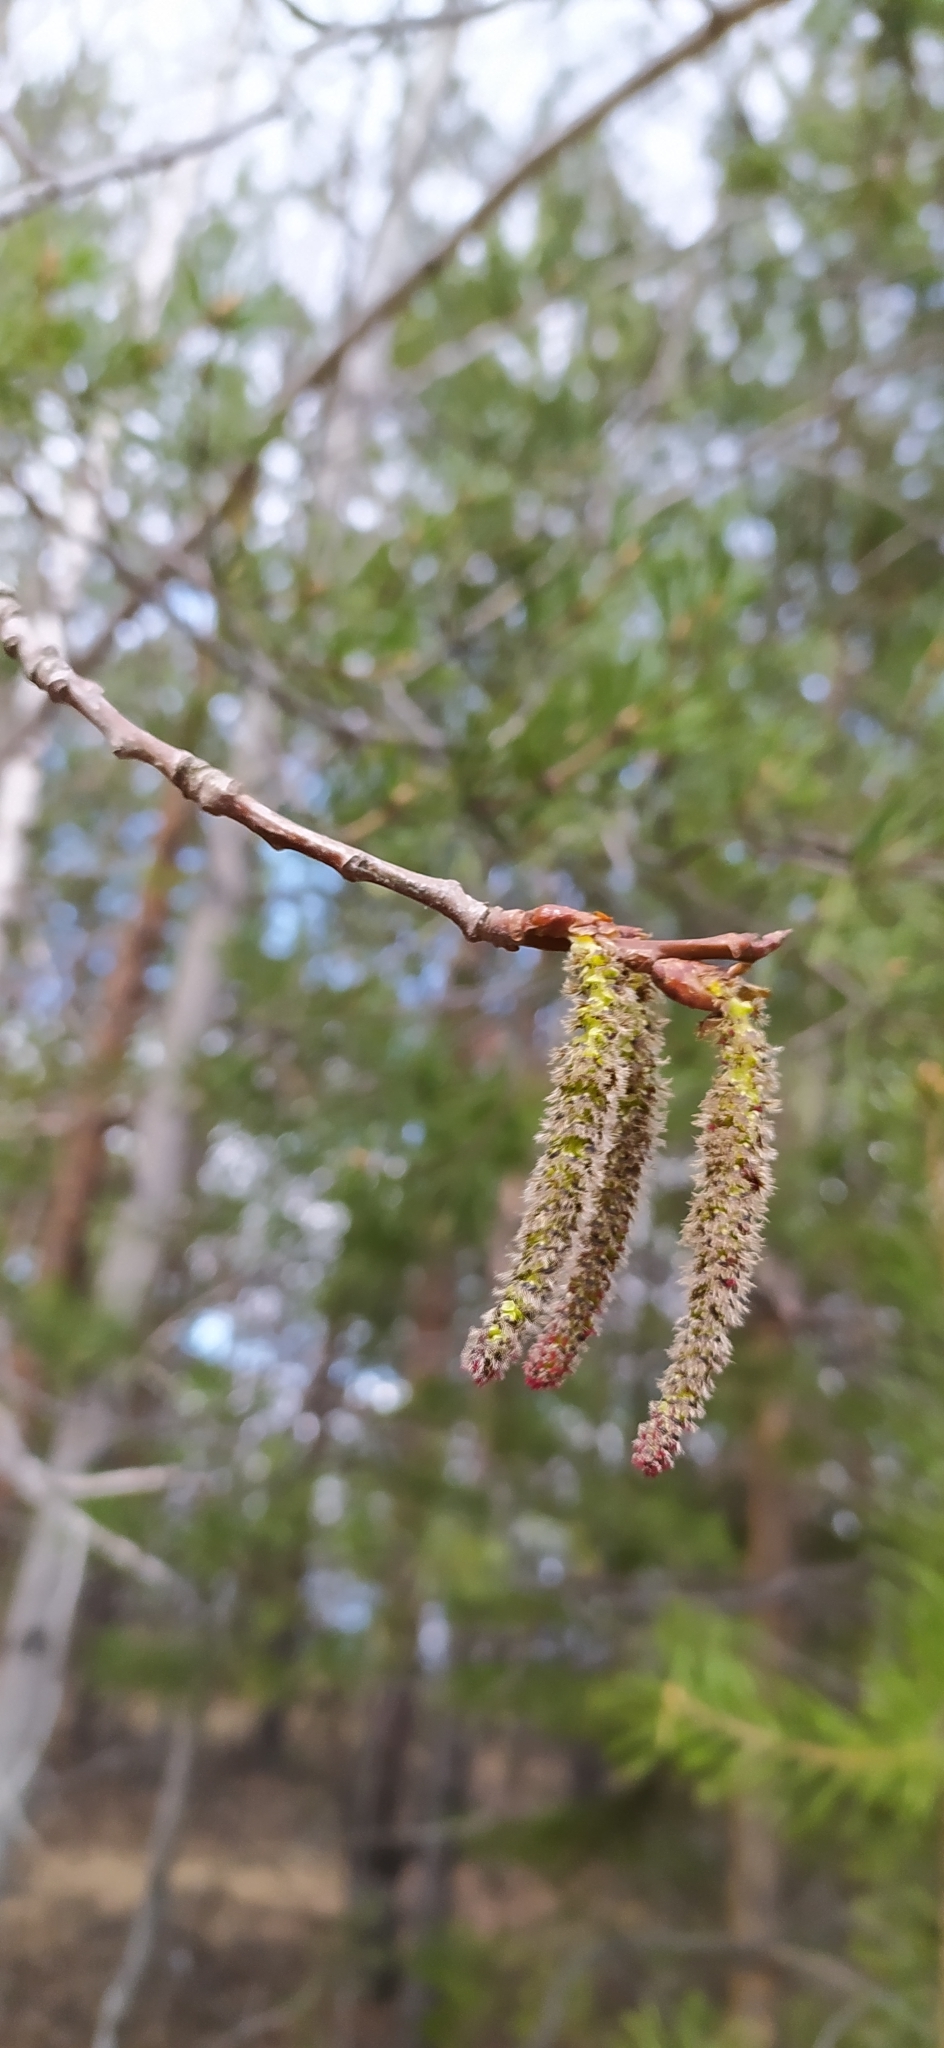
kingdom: Plantae
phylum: Tracheophyta
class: Magnoliopsida
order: Malpighiales
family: Salicaceae
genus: Populus
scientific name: Populus tremula
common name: European aspen
